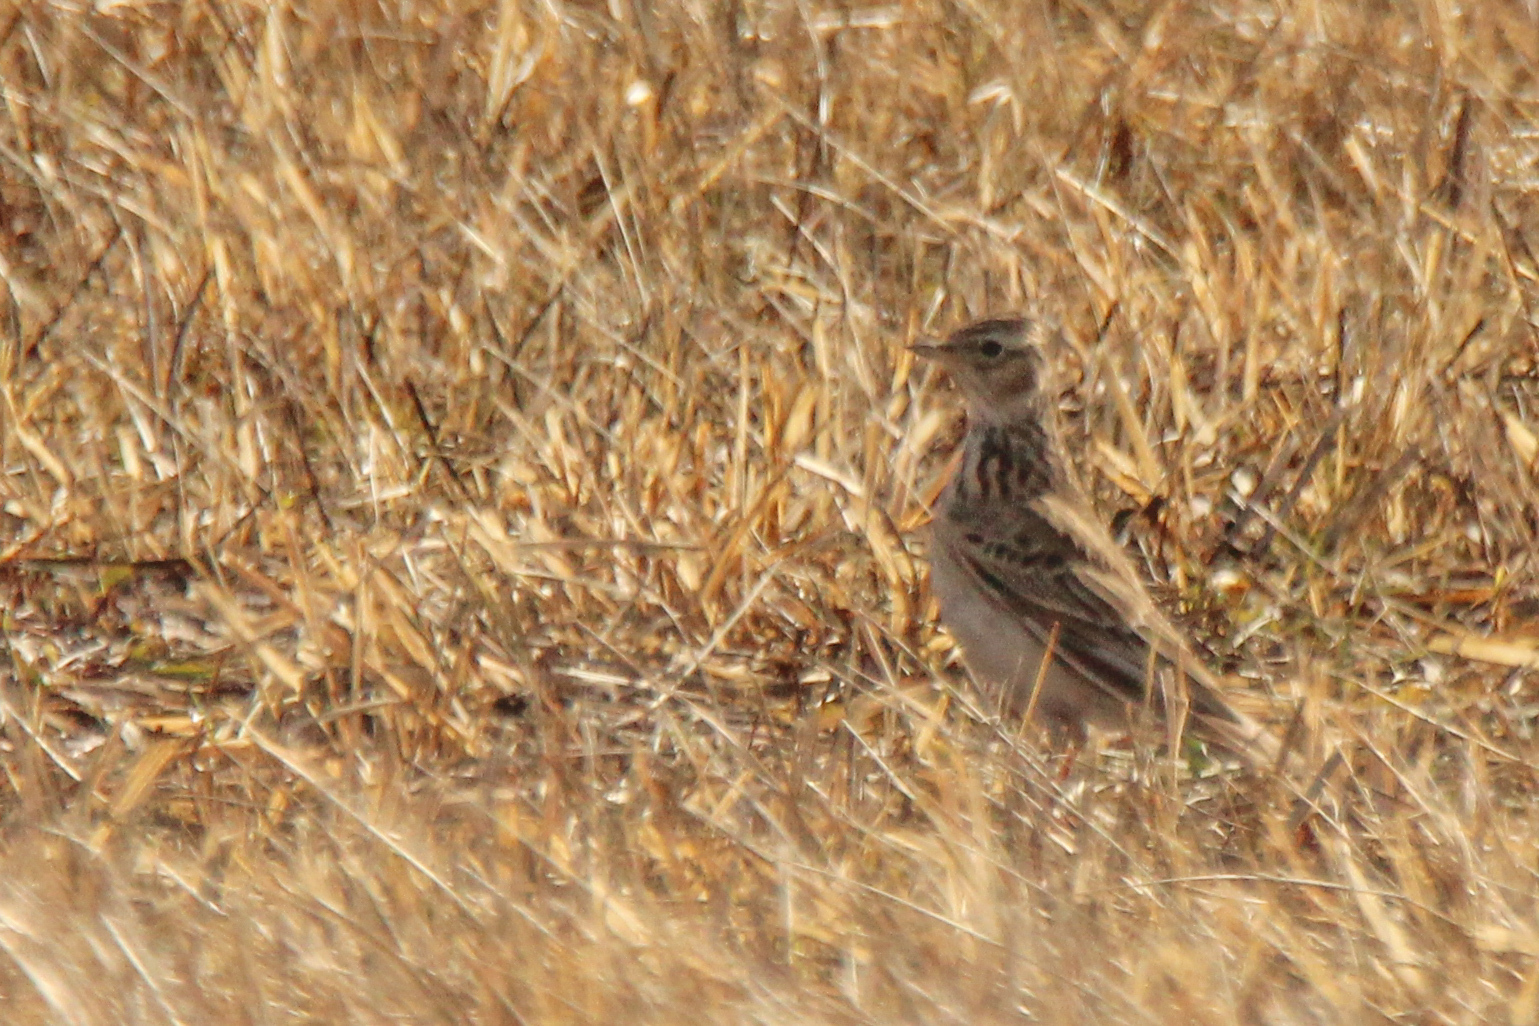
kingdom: Animalia
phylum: Chordata
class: Aves
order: Passeriformes
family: Alaudidae
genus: Alauda
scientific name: Alauda arvensis
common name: Eurasian skylark
